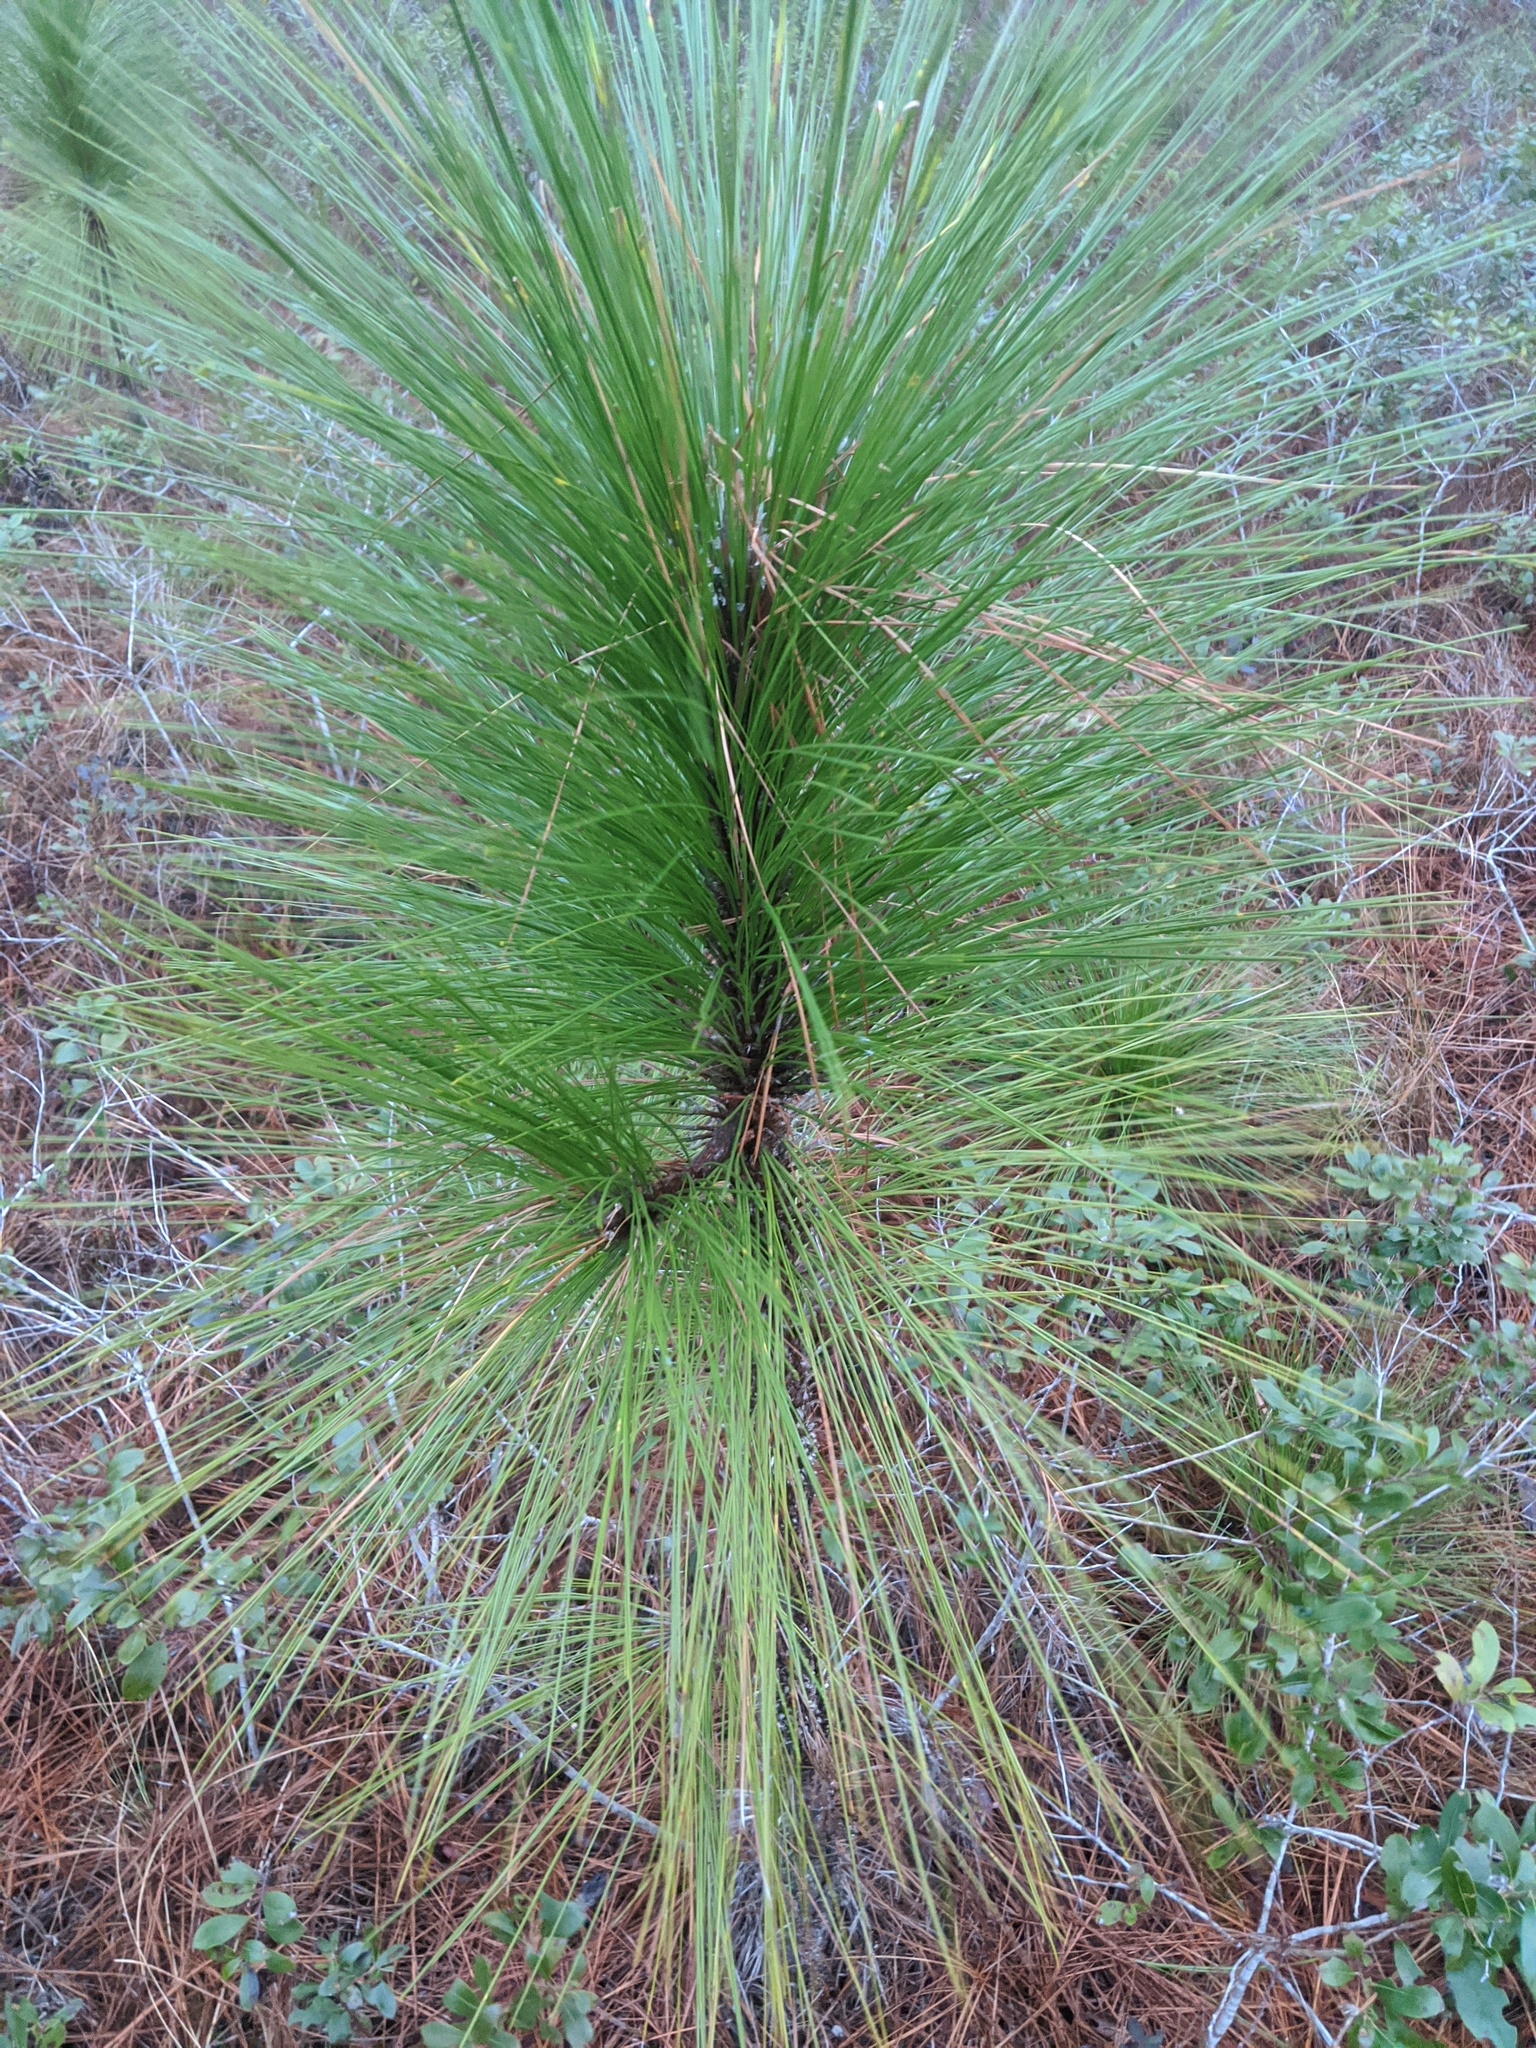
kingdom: Plantae
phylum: Tracheophyta
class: Pinopsida
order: Pinales
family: Pinaceae
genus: Pinus
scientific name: Pinus palustris
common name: Longleaf pine
